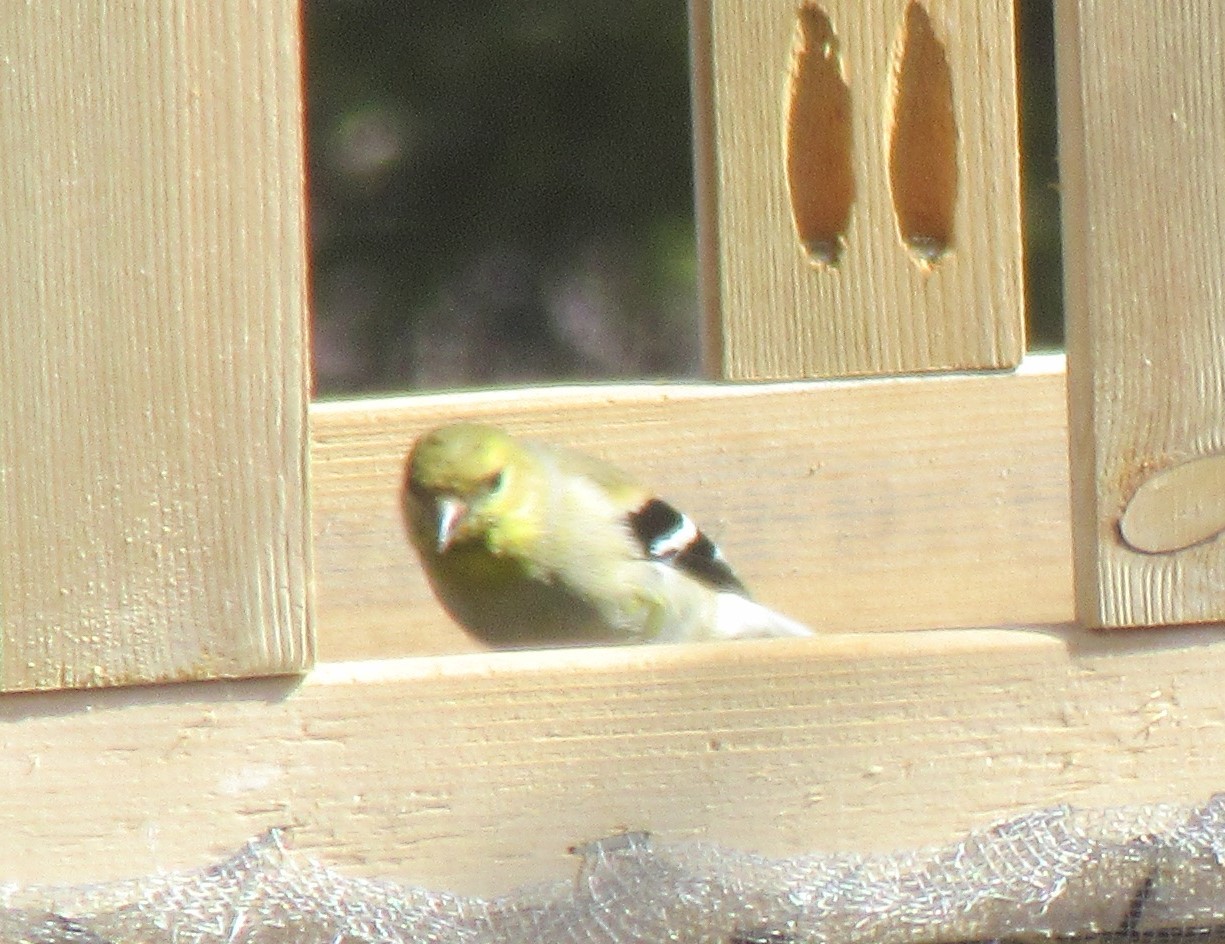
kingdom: Animalia
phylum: Chordata
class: Aves
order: Passeriformes
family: Fringillidae
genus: Spinus
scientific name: Spinus tristis
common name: American goldfinch
